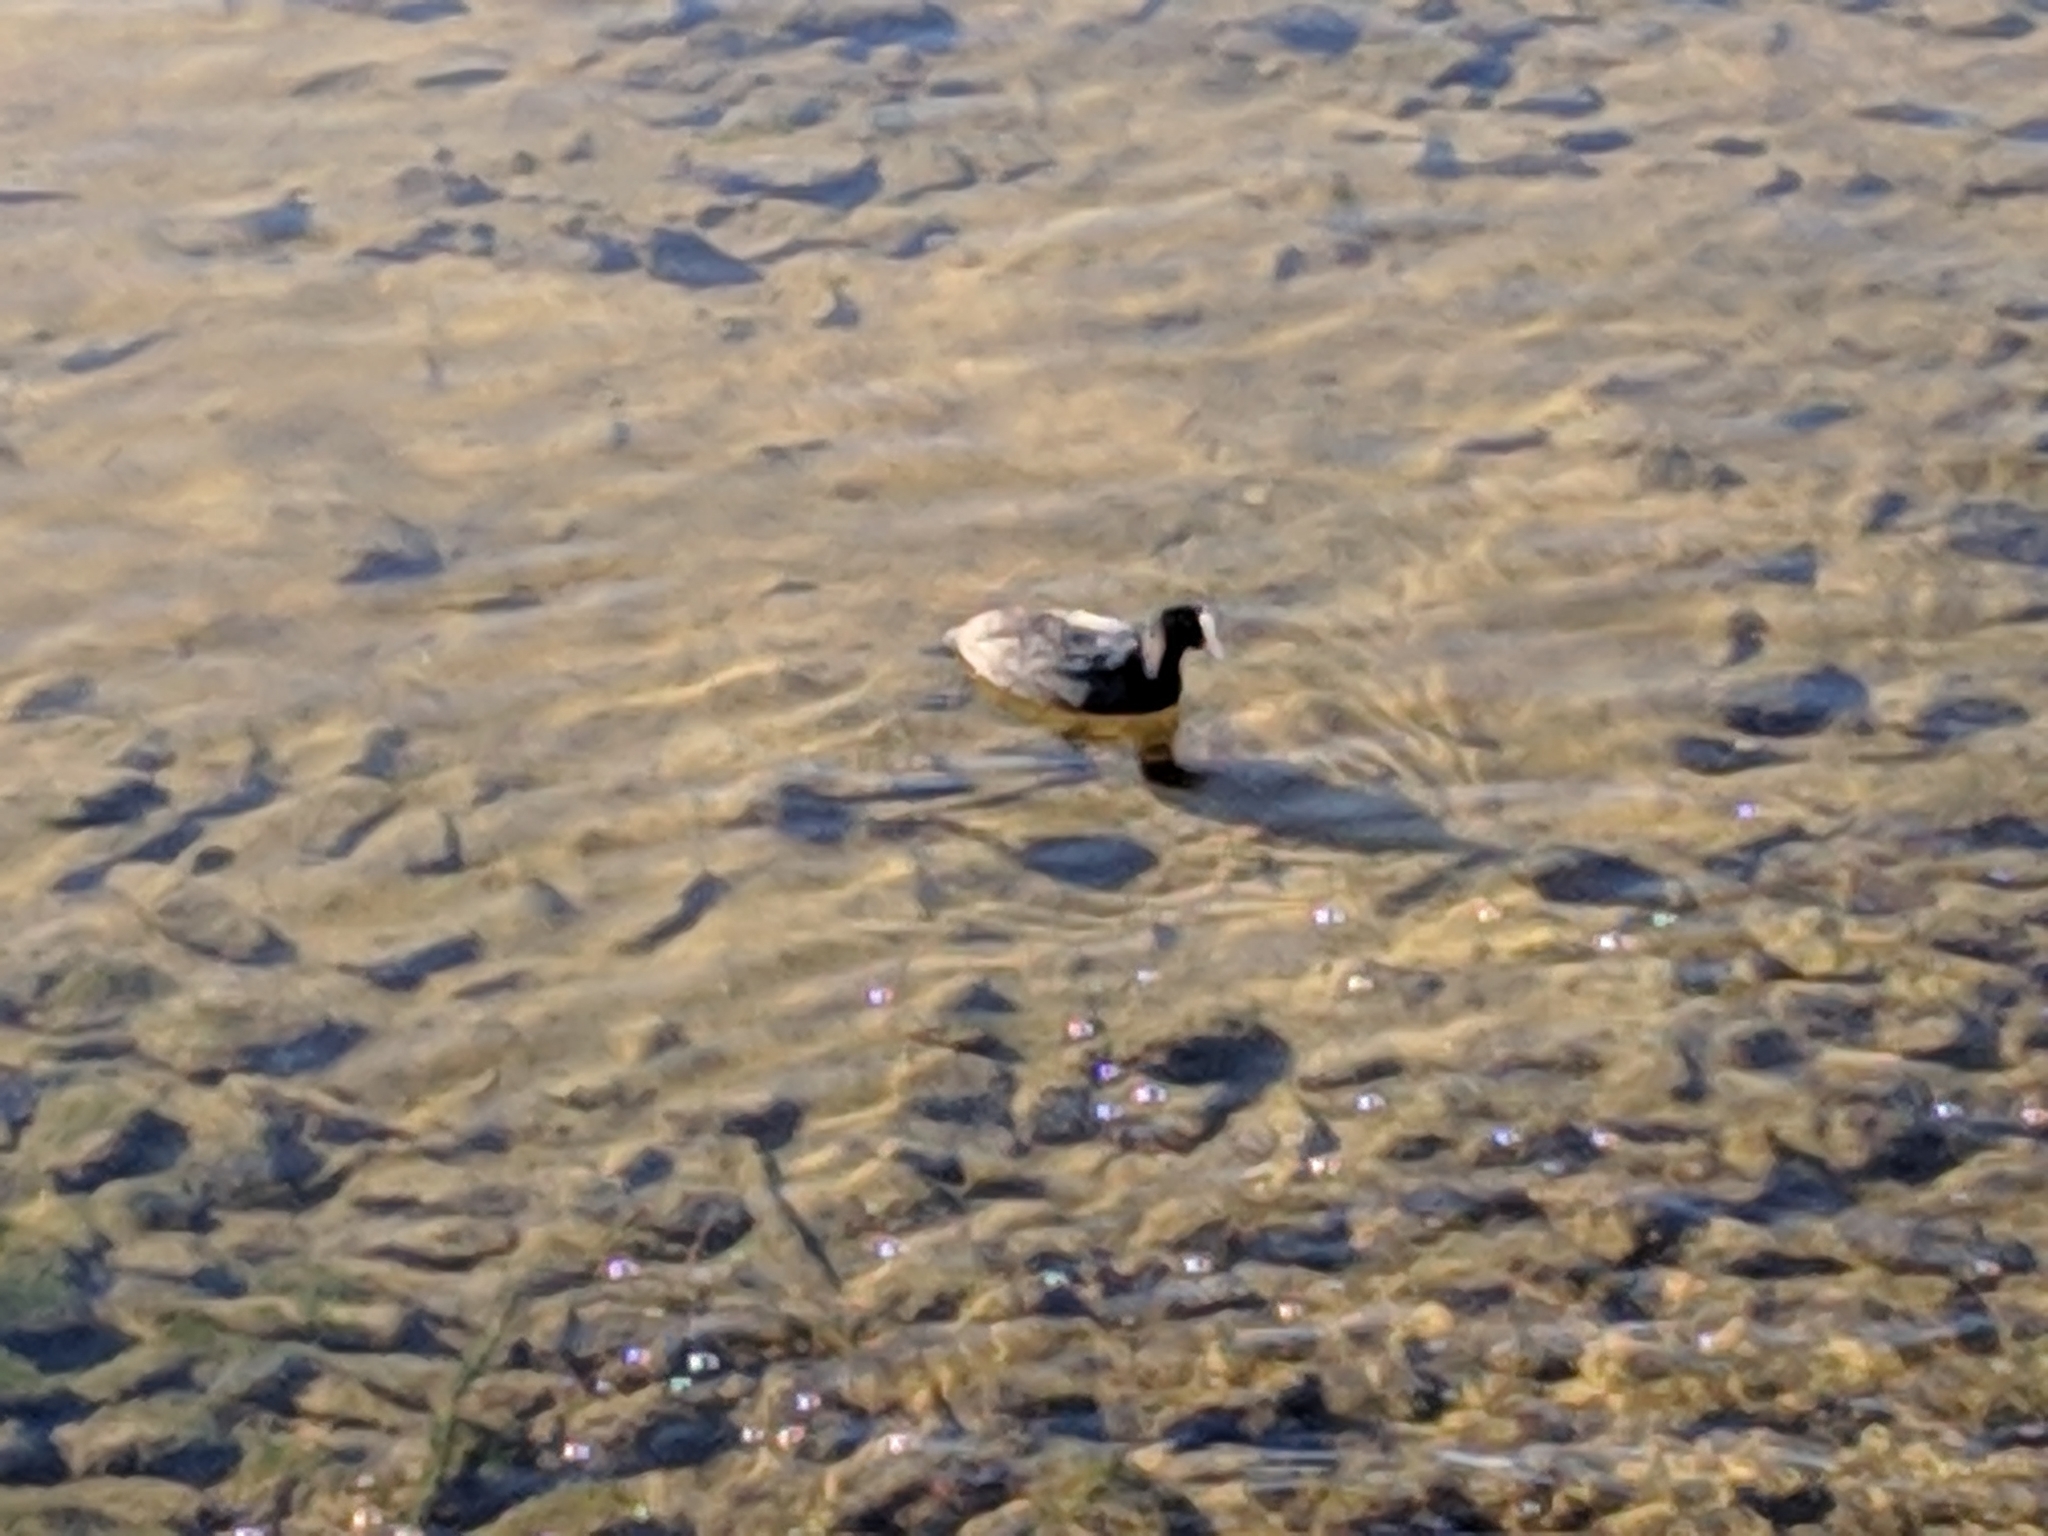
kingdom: Animalia
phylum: Chordata
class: Aves
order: Gruiformes
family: Rallidae
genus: Fulica
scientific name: Fulica atra
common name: Eurasian coot
